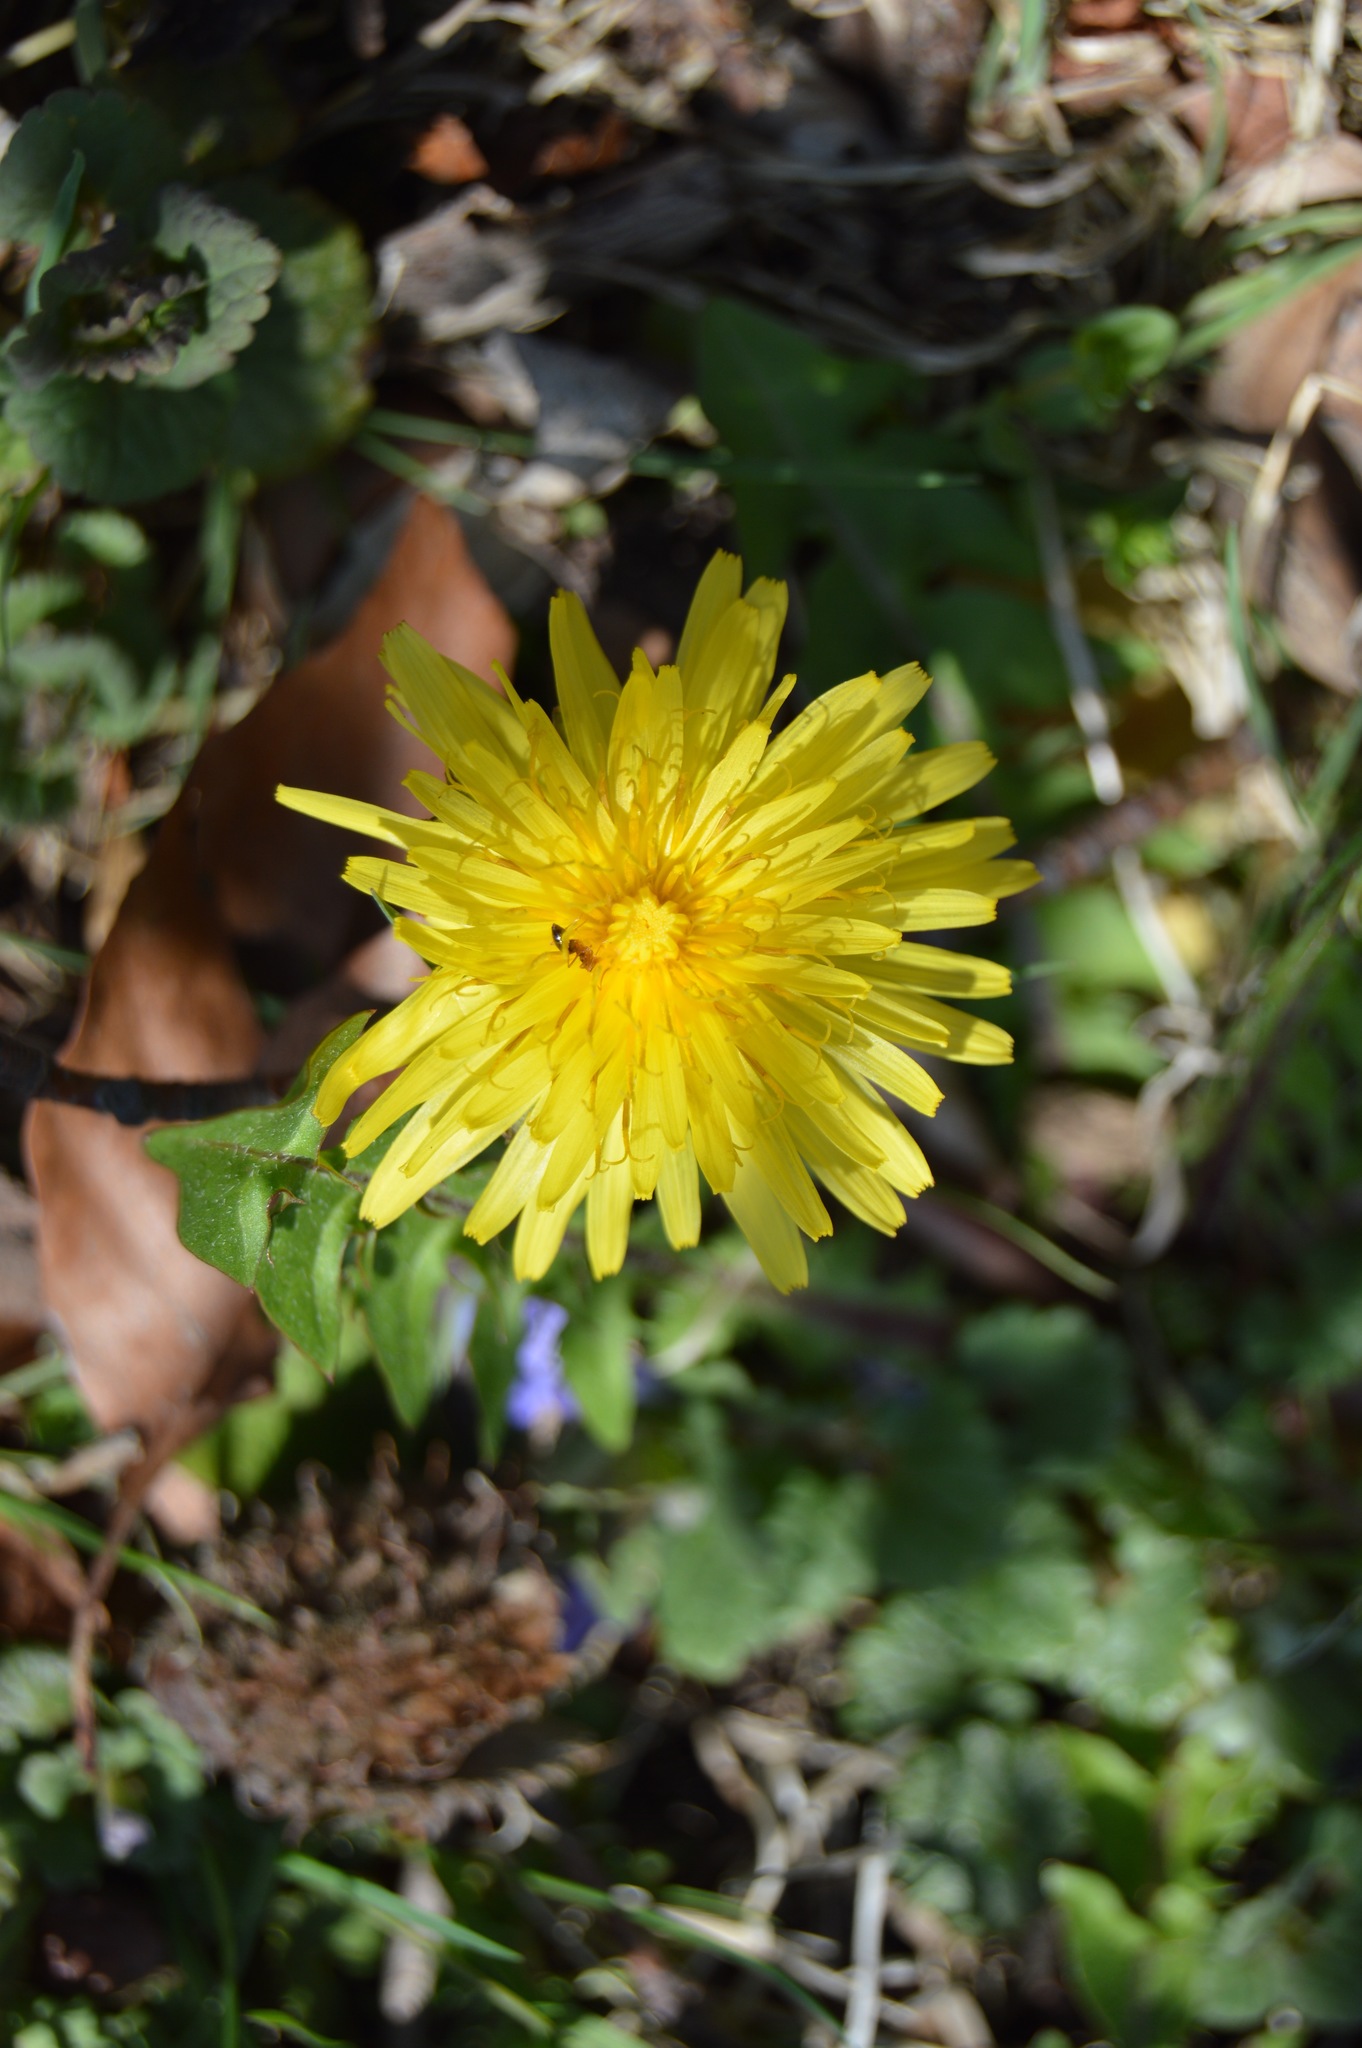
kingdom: Plantae
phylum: Tracheophyta
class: Magnoliopsida
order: Asterales
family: Asteraceae
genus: Taraxacum
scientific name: Taraxacum officinale
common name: Common dandelion
